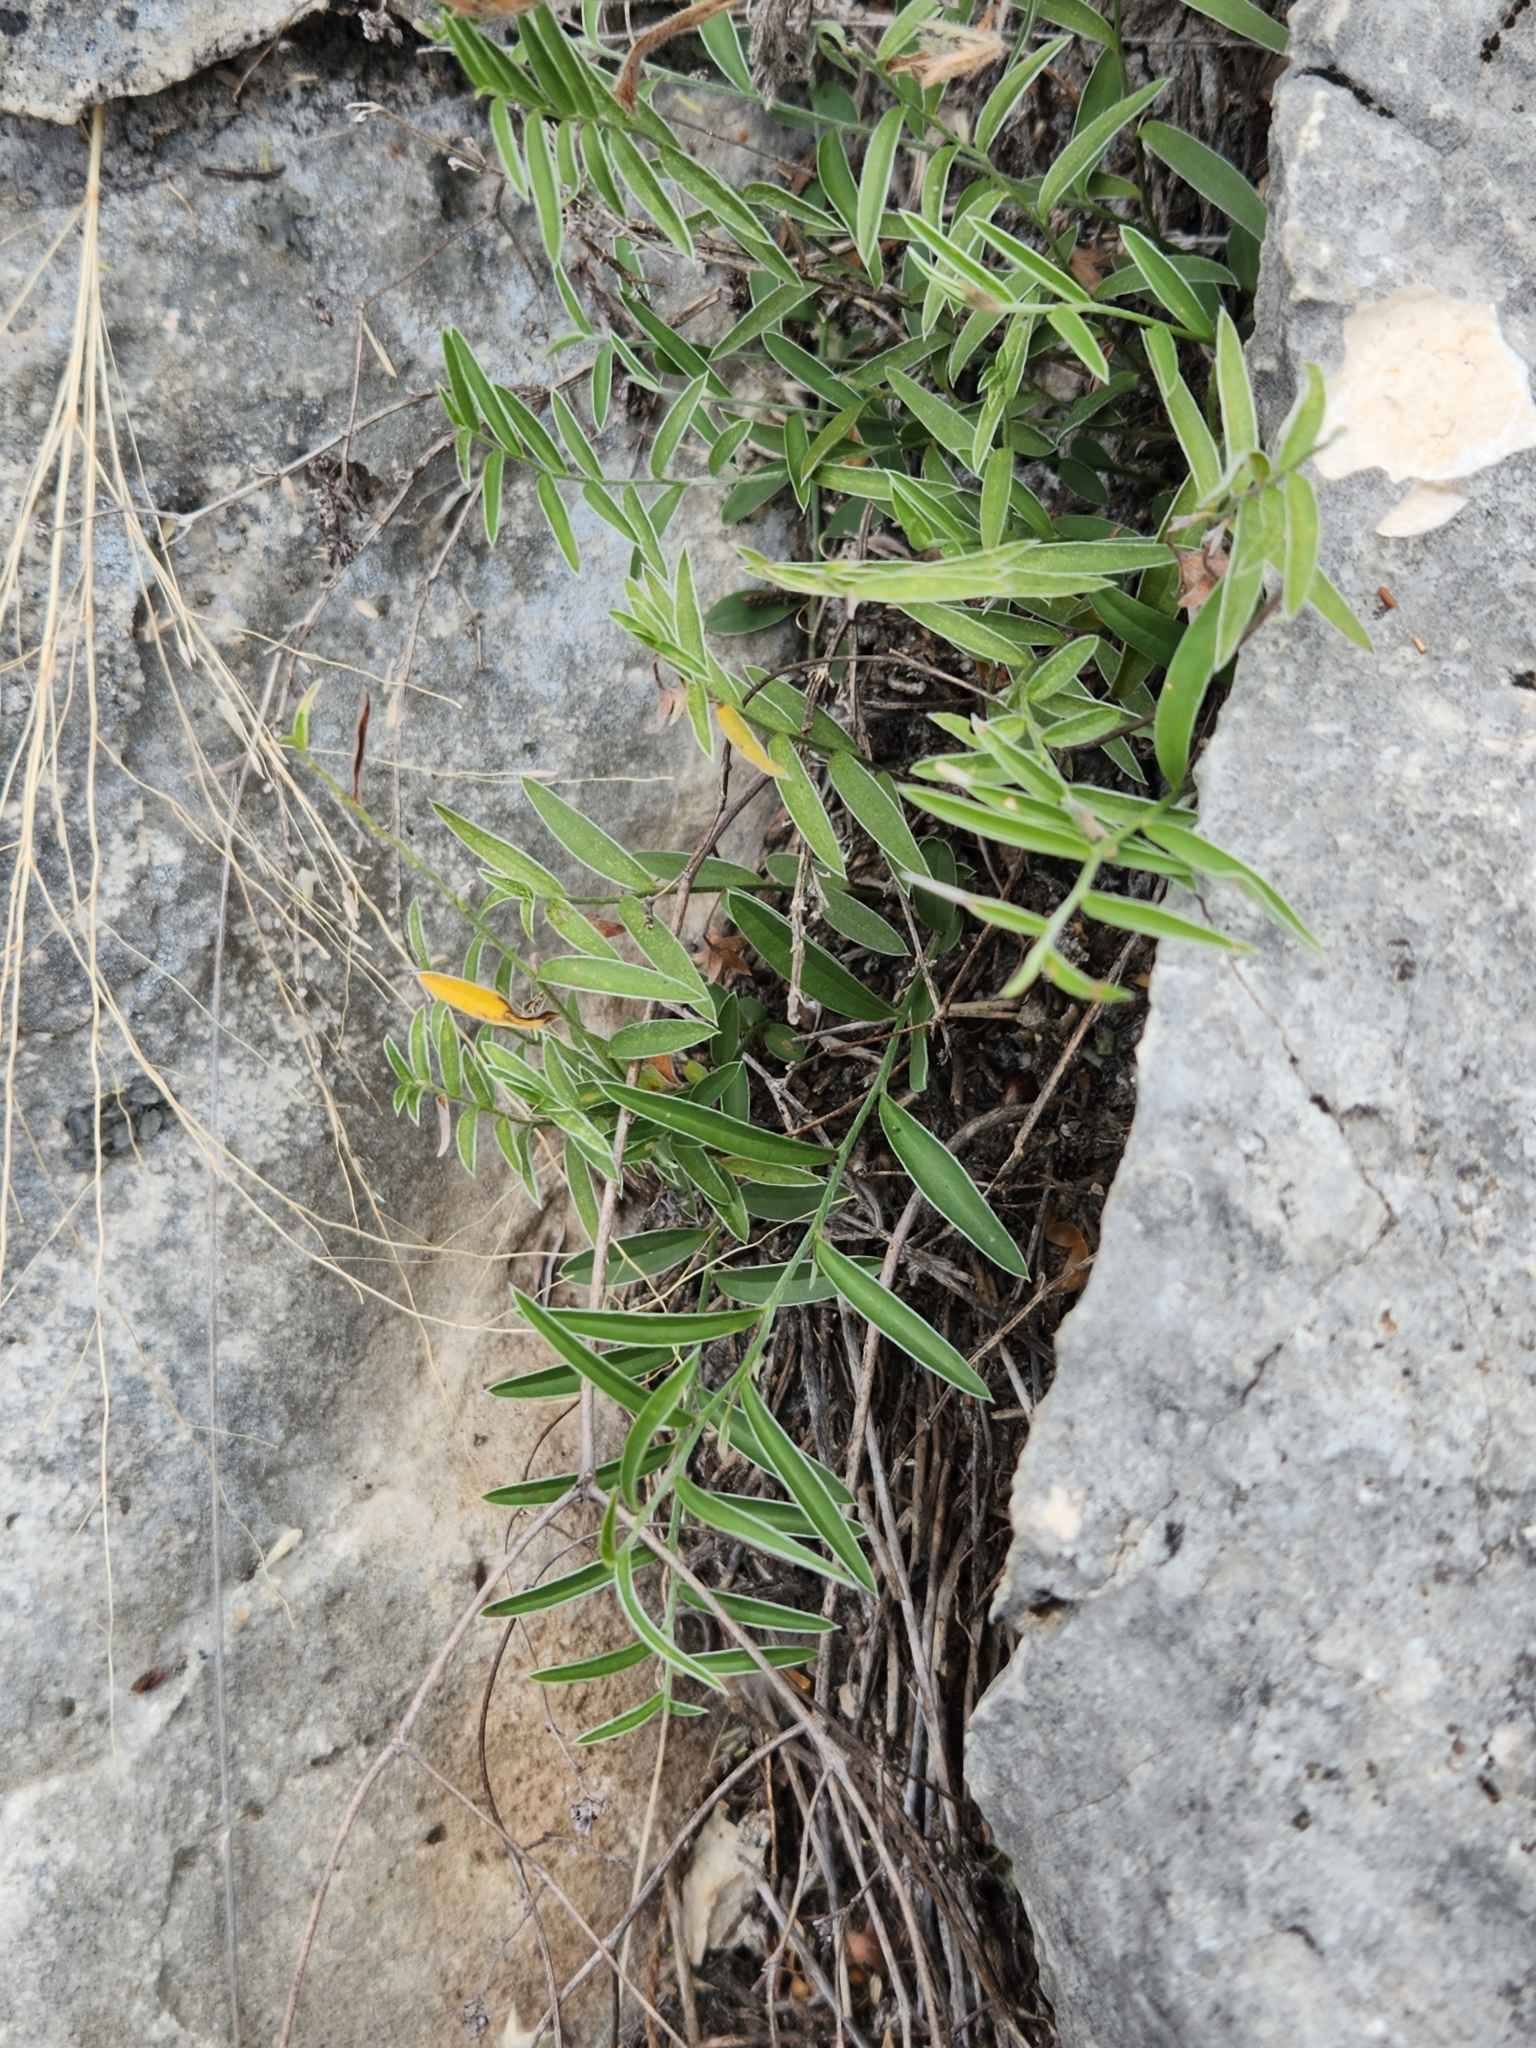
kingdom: Plantae
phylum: Tracheophyta
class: Magnoliopsida
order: Solanales
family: Convolvulaceae
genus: Evolvulus
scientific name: Evolvulus sericeus
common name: Blue dots
